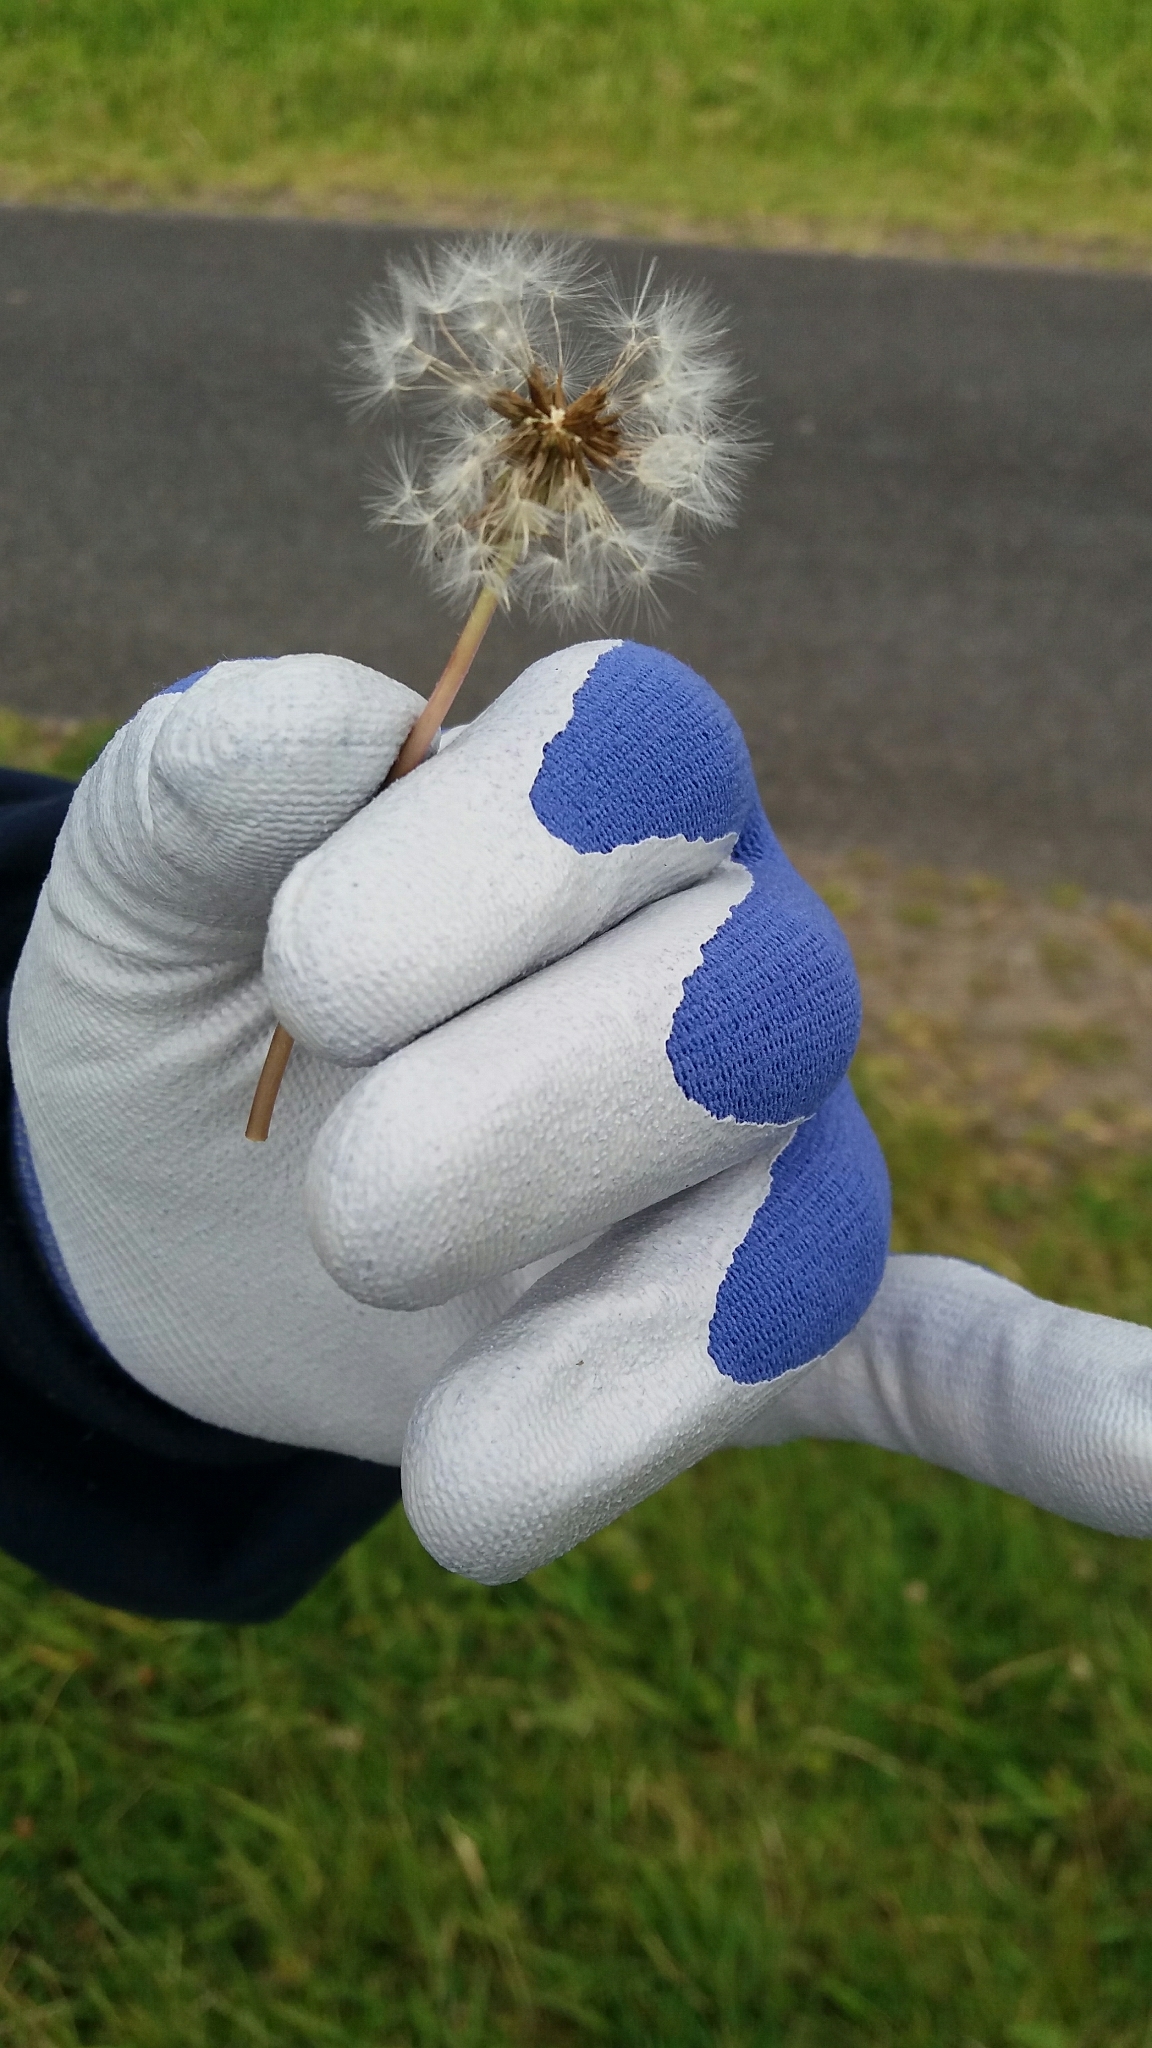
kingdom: Plantae
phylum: Tracheophyta
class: Magnoliopsida
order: Asterales
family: Asteraceae
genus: Taraxacum
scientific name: Taraxacum officinale
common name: Common dandelion
